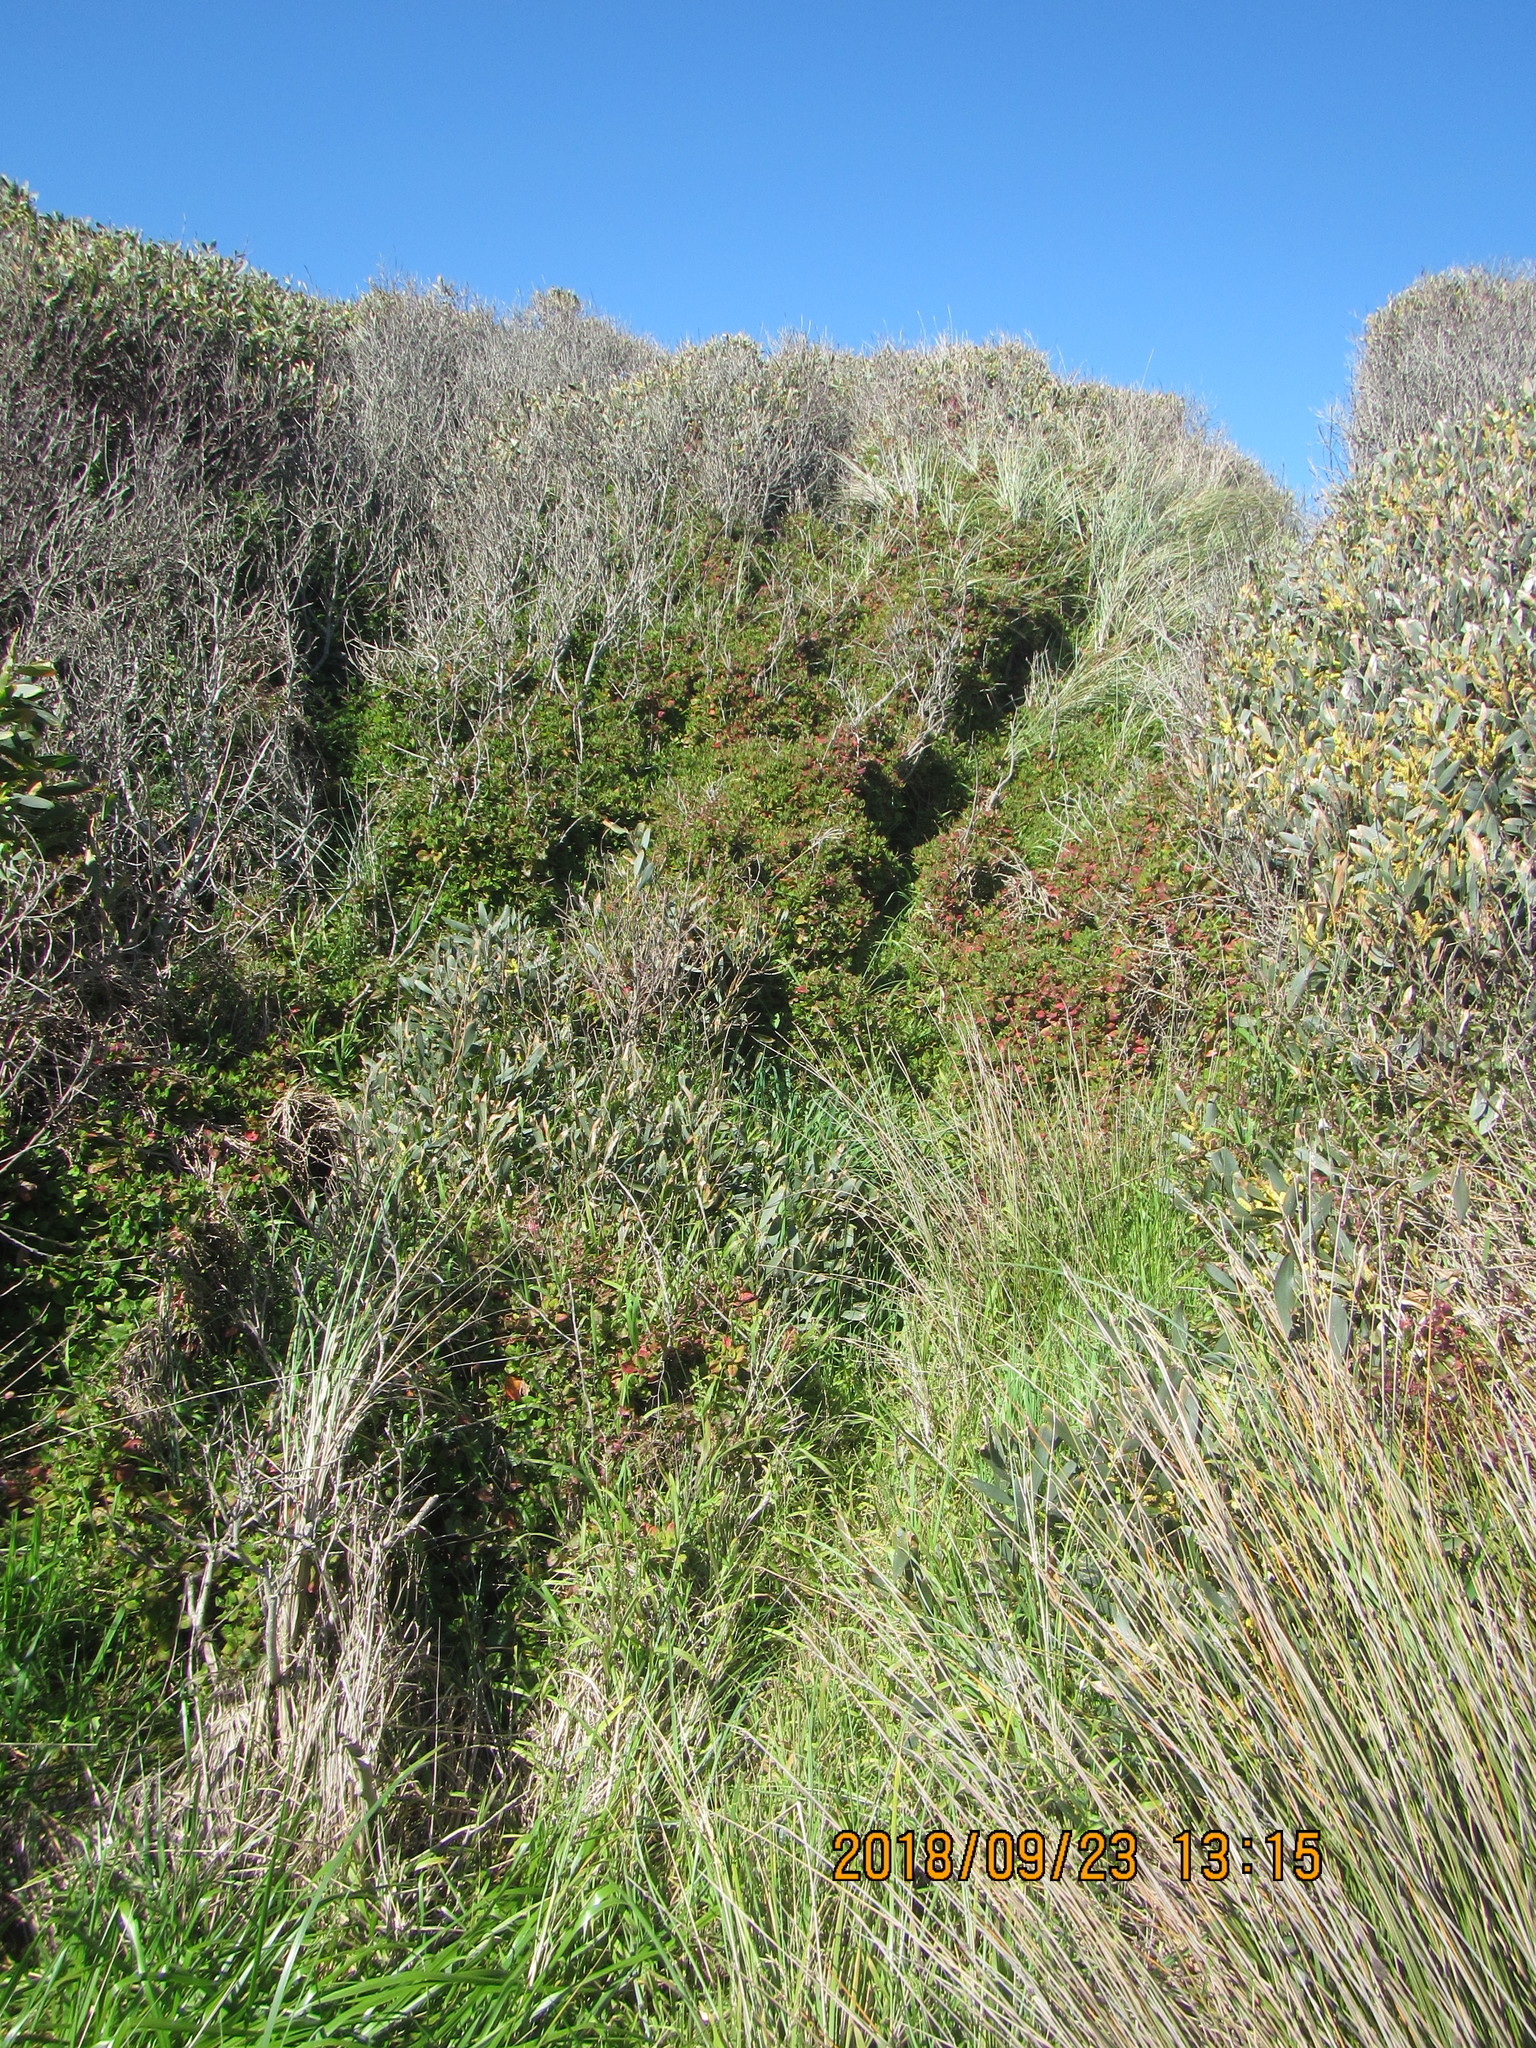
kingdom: Plantae
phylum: Tracheophyta
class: Magnoliopsida
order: Caryophyllales
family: Aizoaceae
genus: Tetragonia
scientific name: Tetragonia implexicoma
